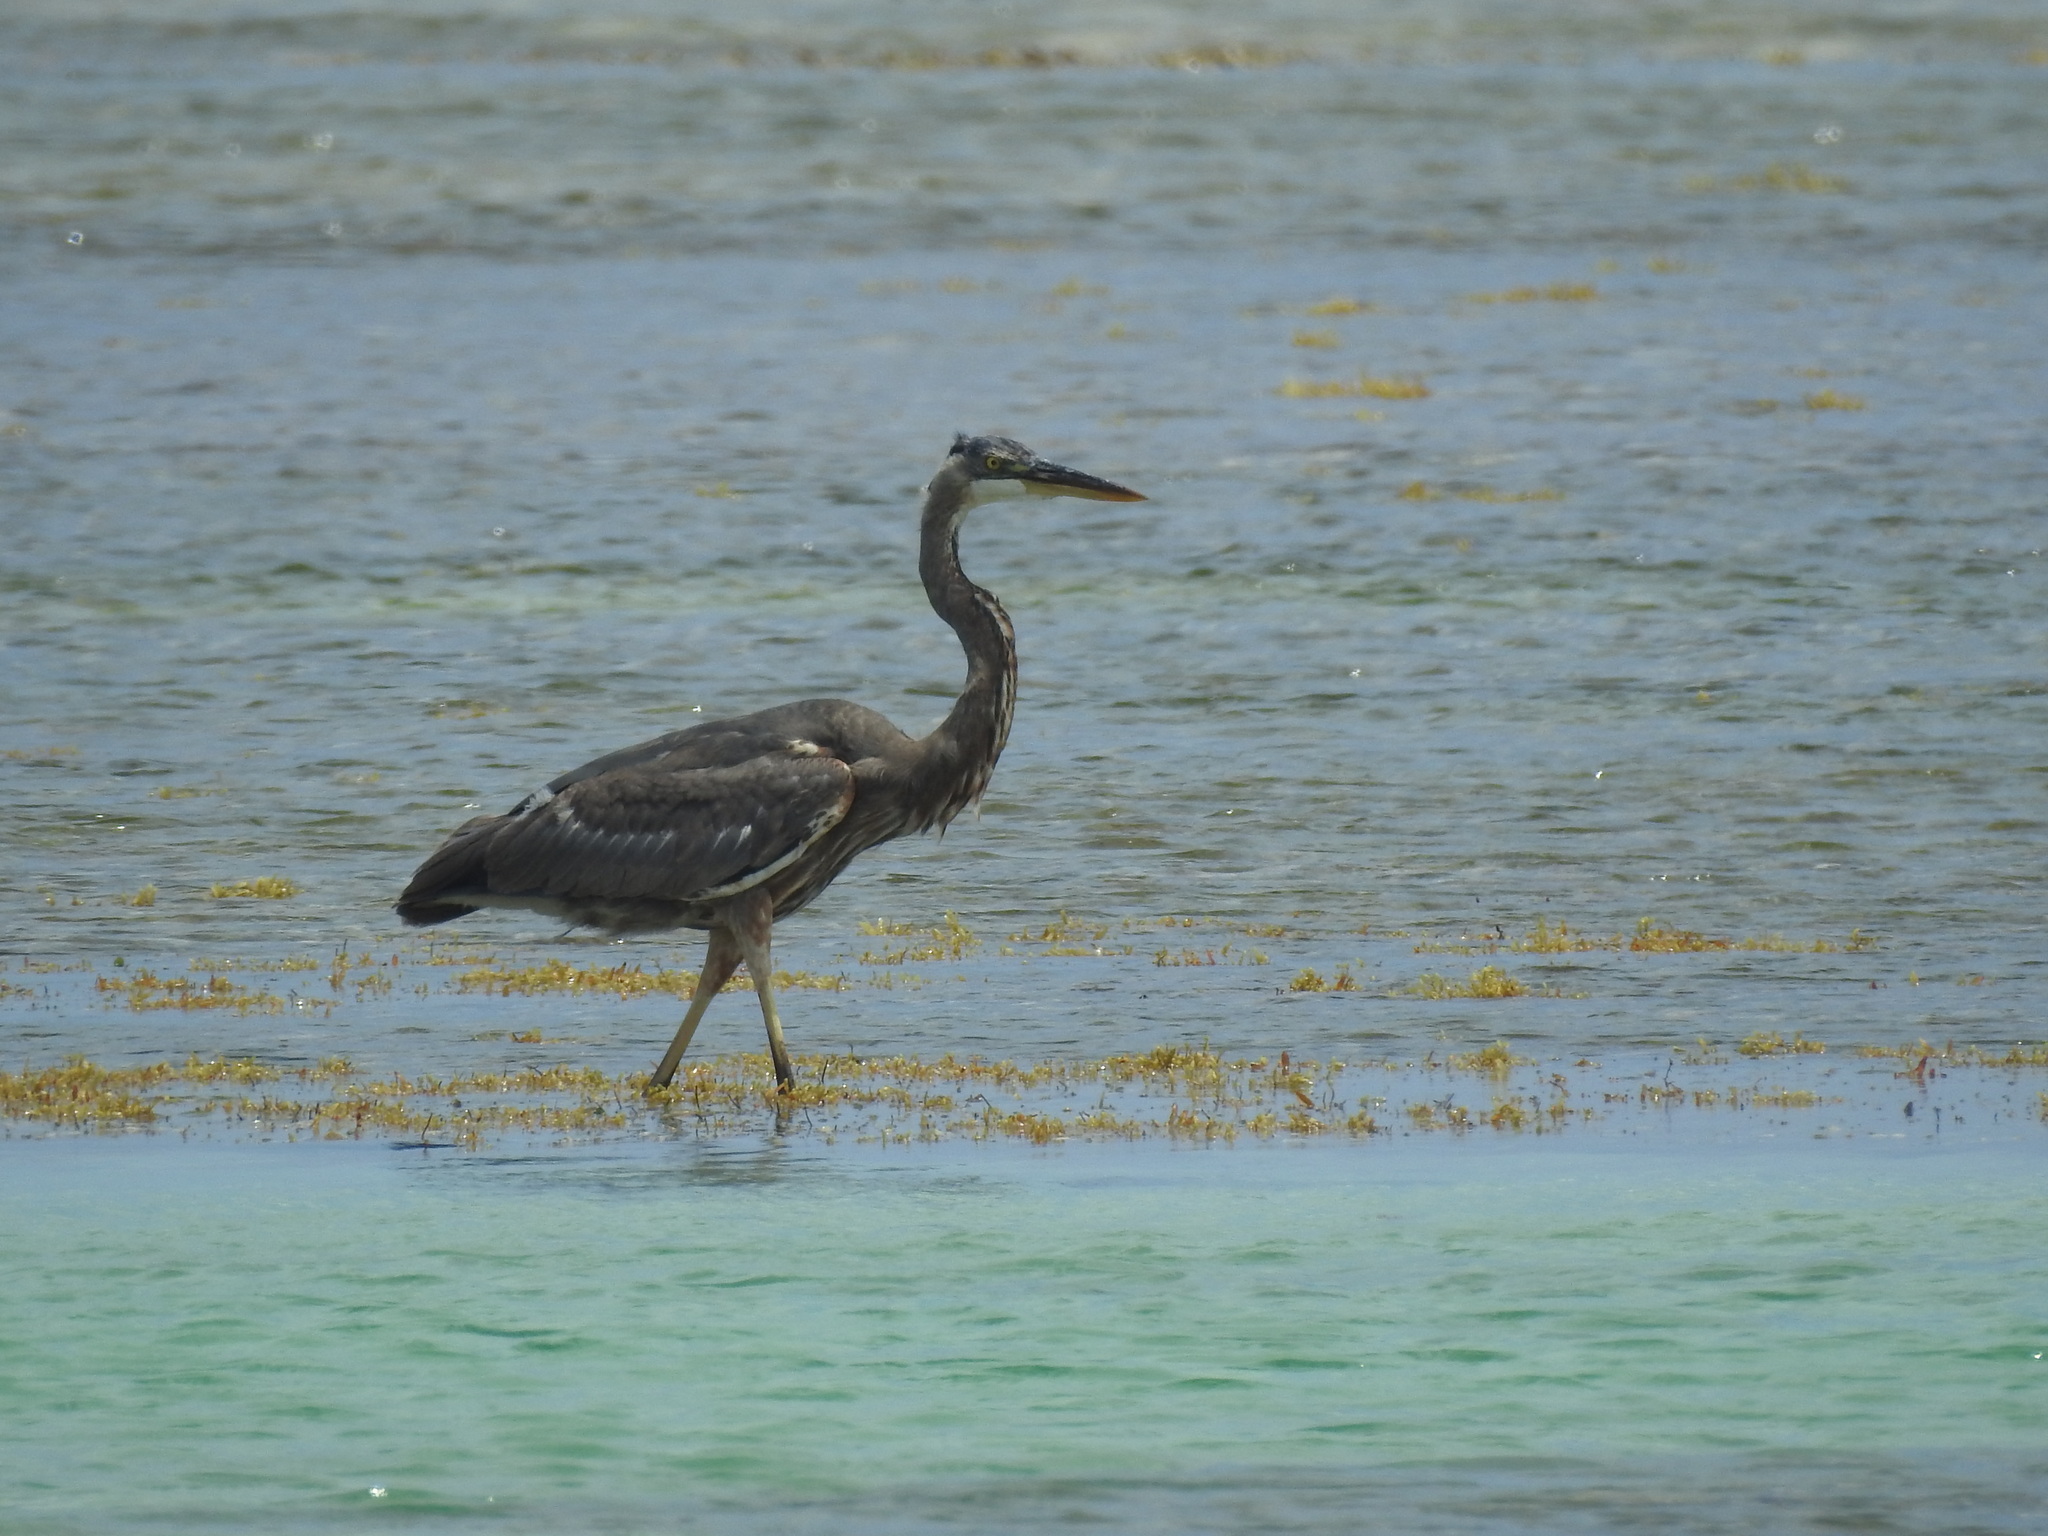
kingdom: Animalia
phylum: Chordata
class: Aves
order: Pelecaniformes
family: Ardeidae
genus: Ardea
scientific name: Ardea herodias
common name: Great blue heron
